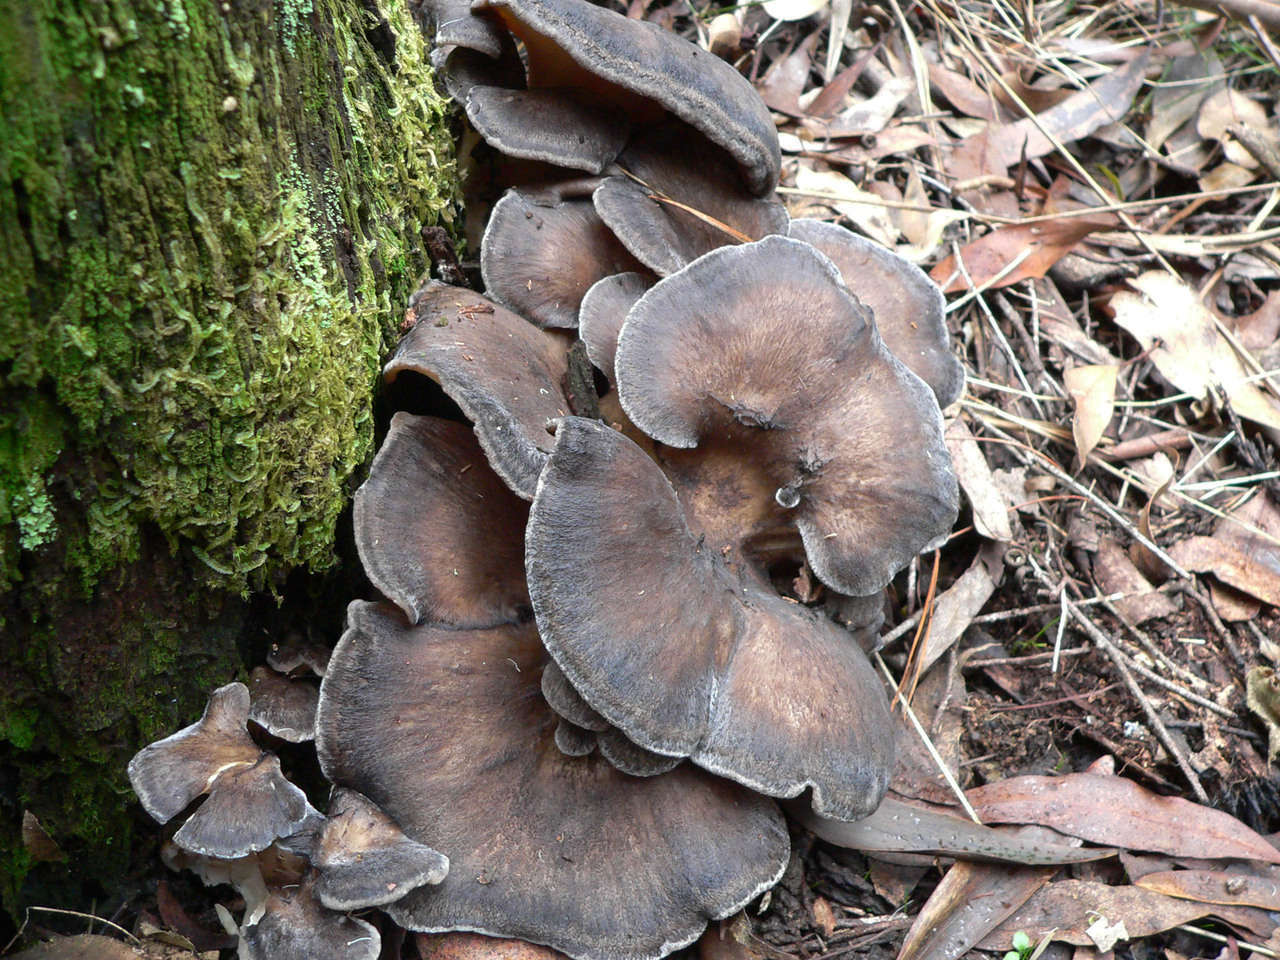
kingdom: Fungi
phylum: Basidiomycota
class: Agaricomycetes
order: Polyporales
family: Grifolaceae
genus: Grifola
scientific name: Grifola colensoi
